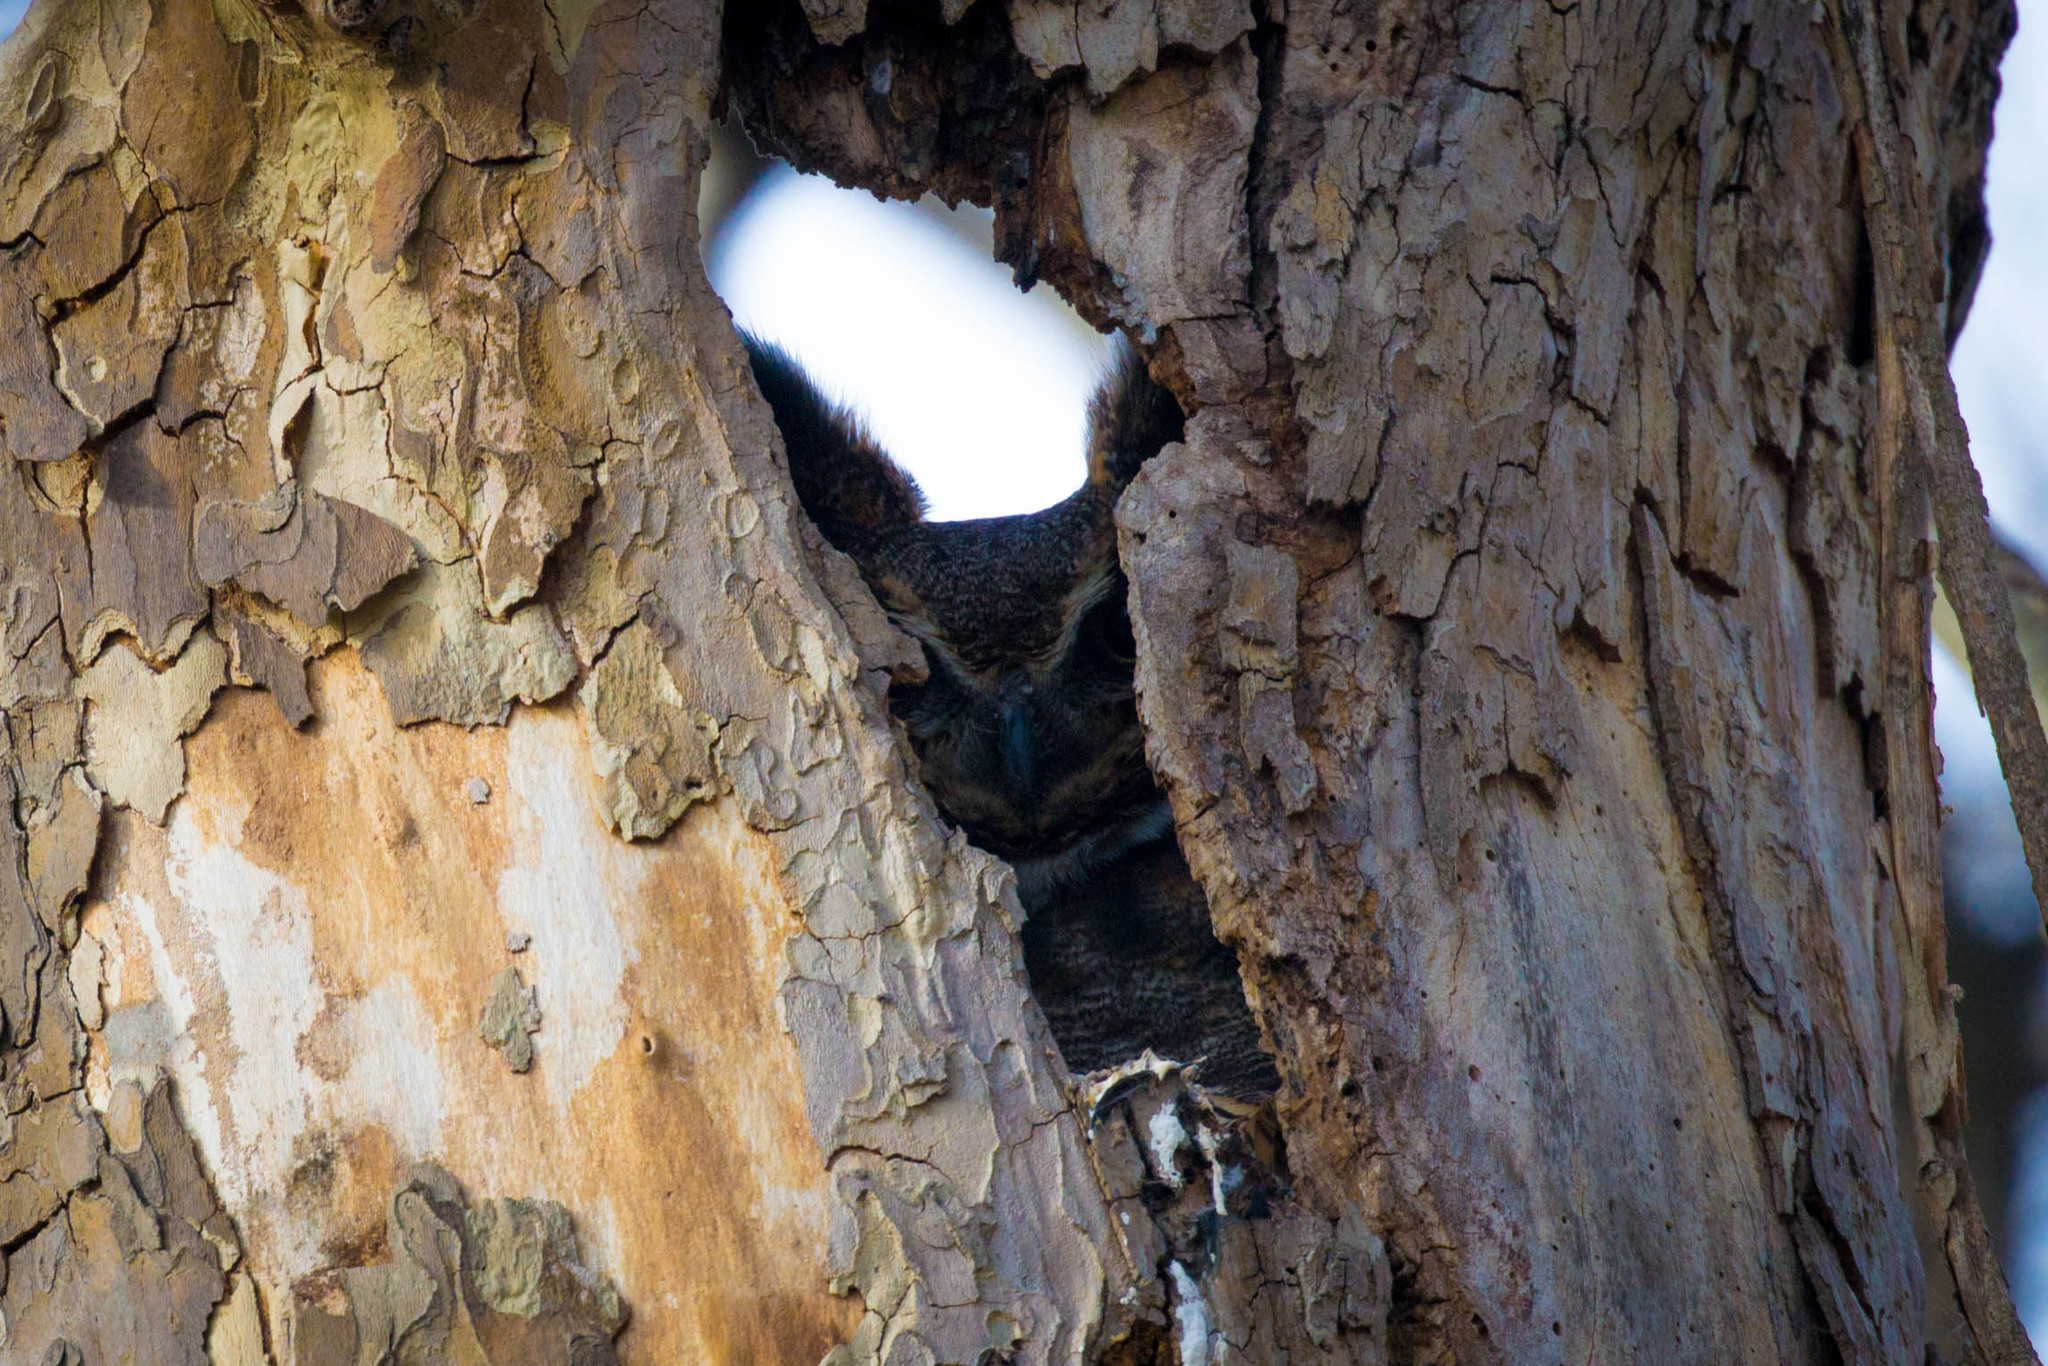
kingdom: Animalia
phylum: Chordata
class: Aves
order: Strigiformes
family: Strigidae
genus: Bubo
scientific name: Bubo virginianus
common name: Great horned owl
